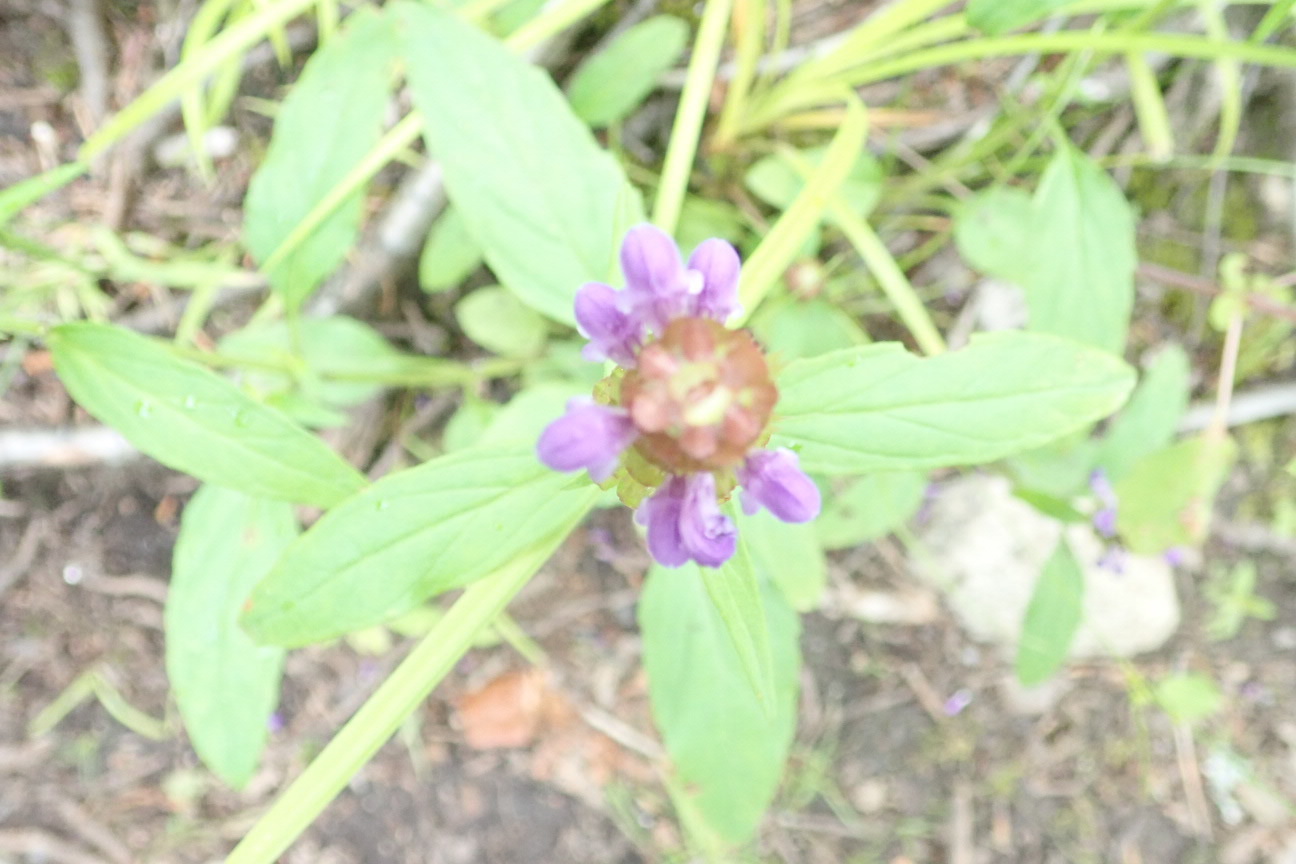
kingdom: Plantae
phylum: Tracheophyta
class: Magnoliopsida
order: Lamiales
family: Lamiaceae
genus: Prunella
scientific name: Prunella vulgaris
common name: Heal-all
